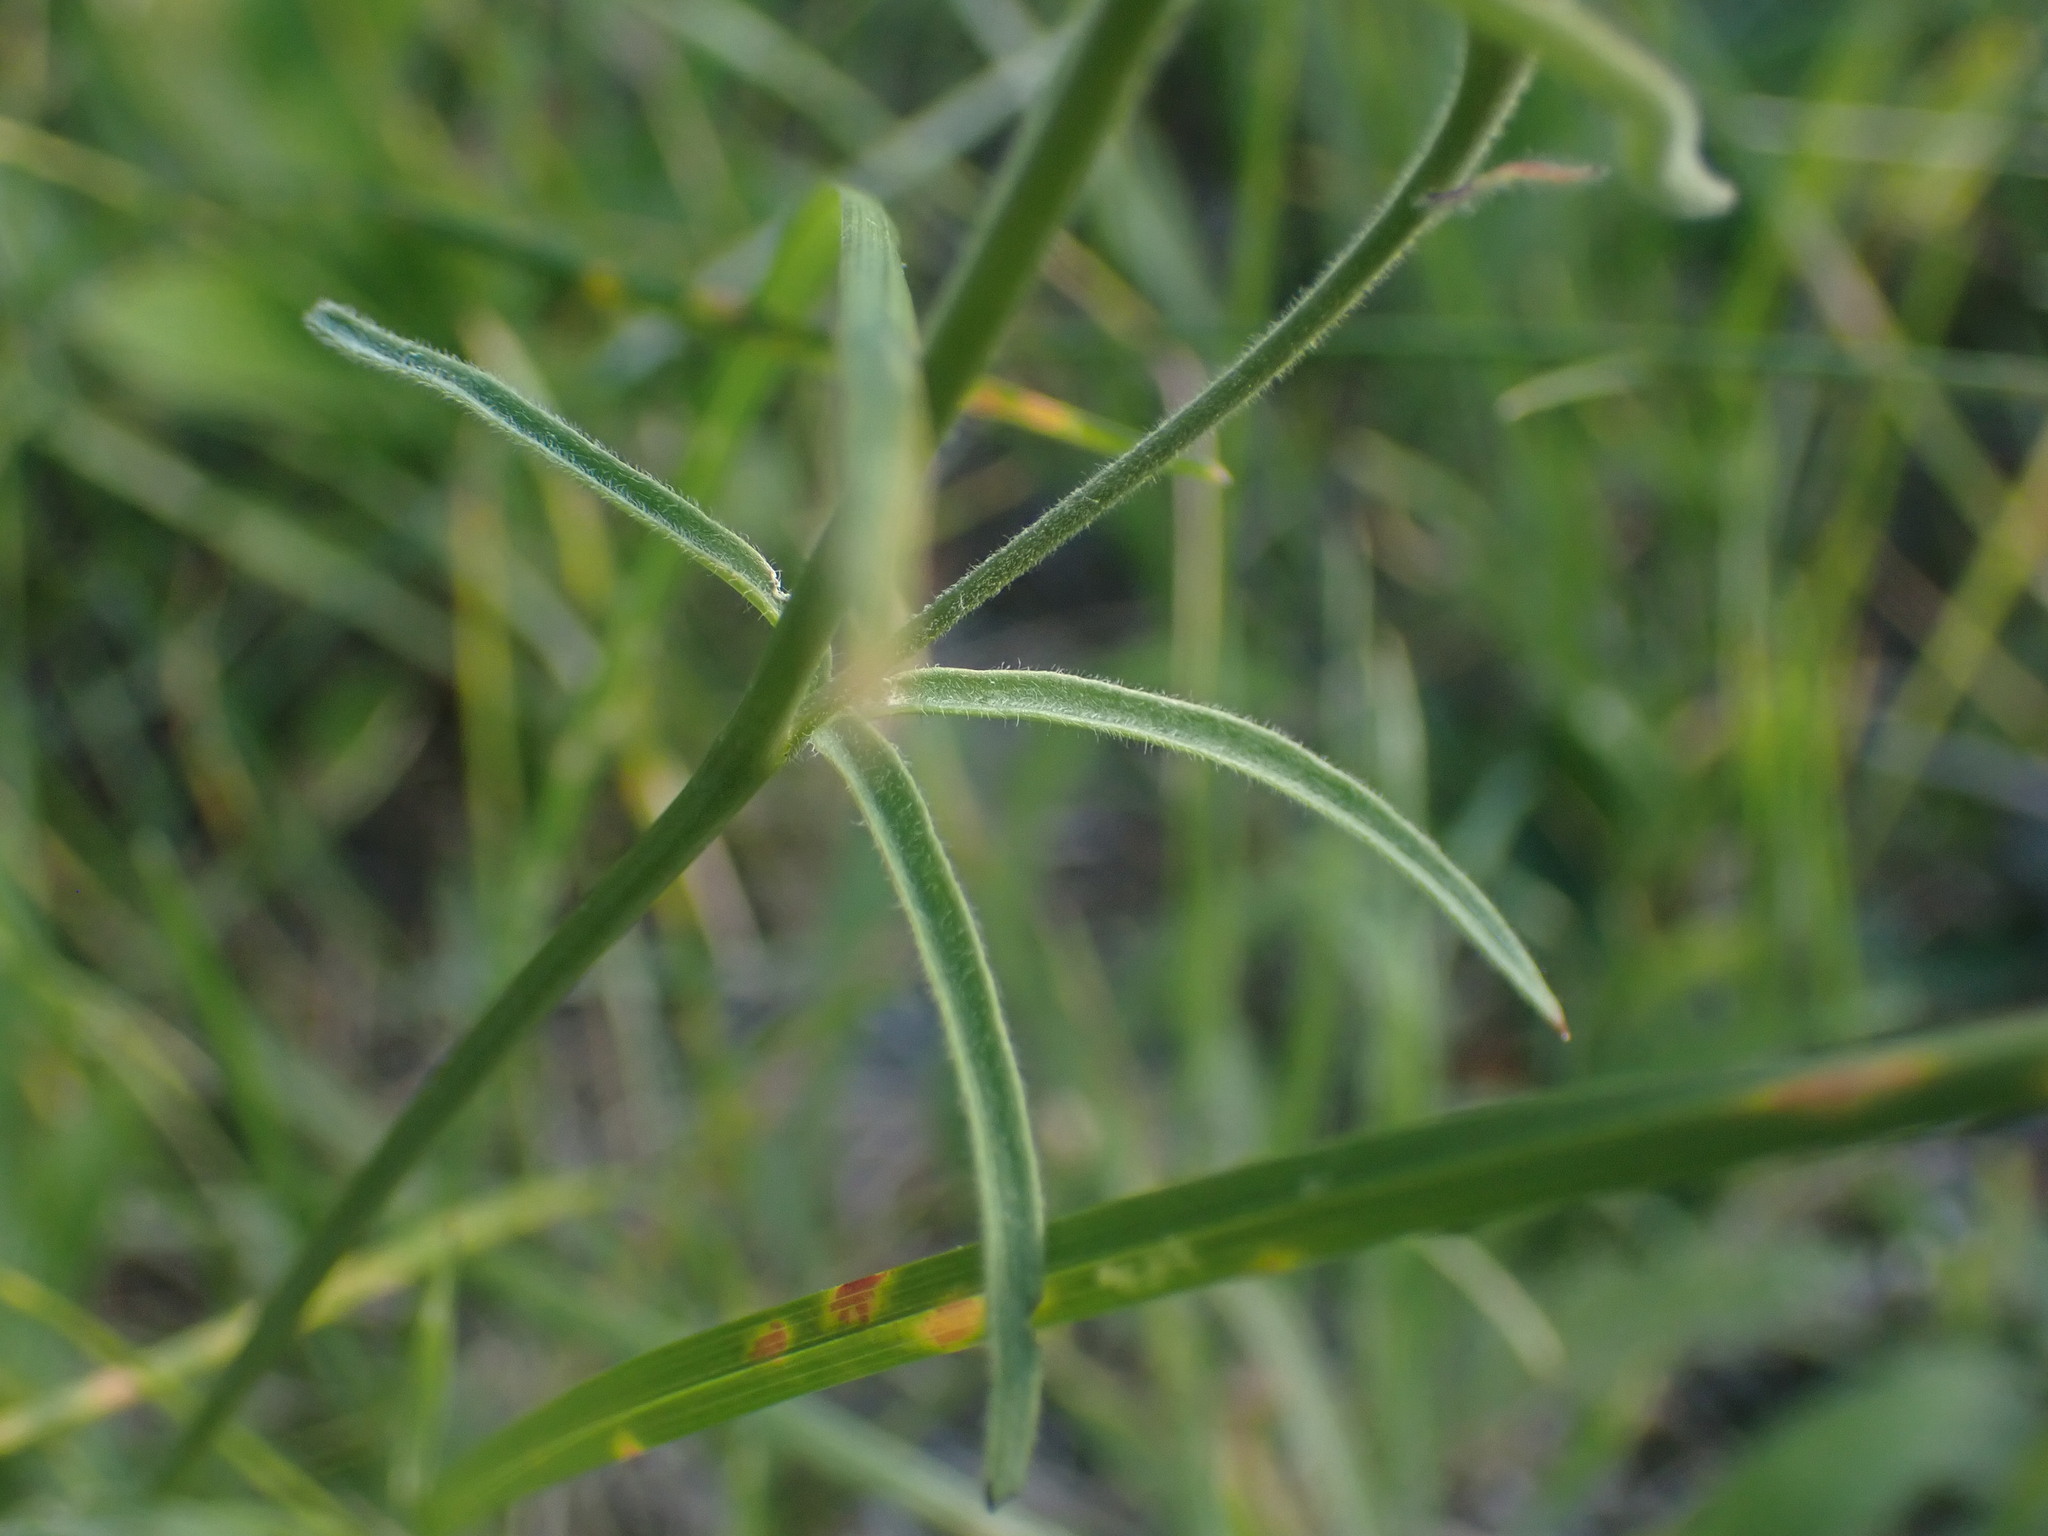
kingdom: Plantae
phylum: Tracheophyta
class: Magnoliopsida
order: Ranunculales
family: Ranunculaceae
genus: Delphinium
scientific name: Delphinium nuttallianum
